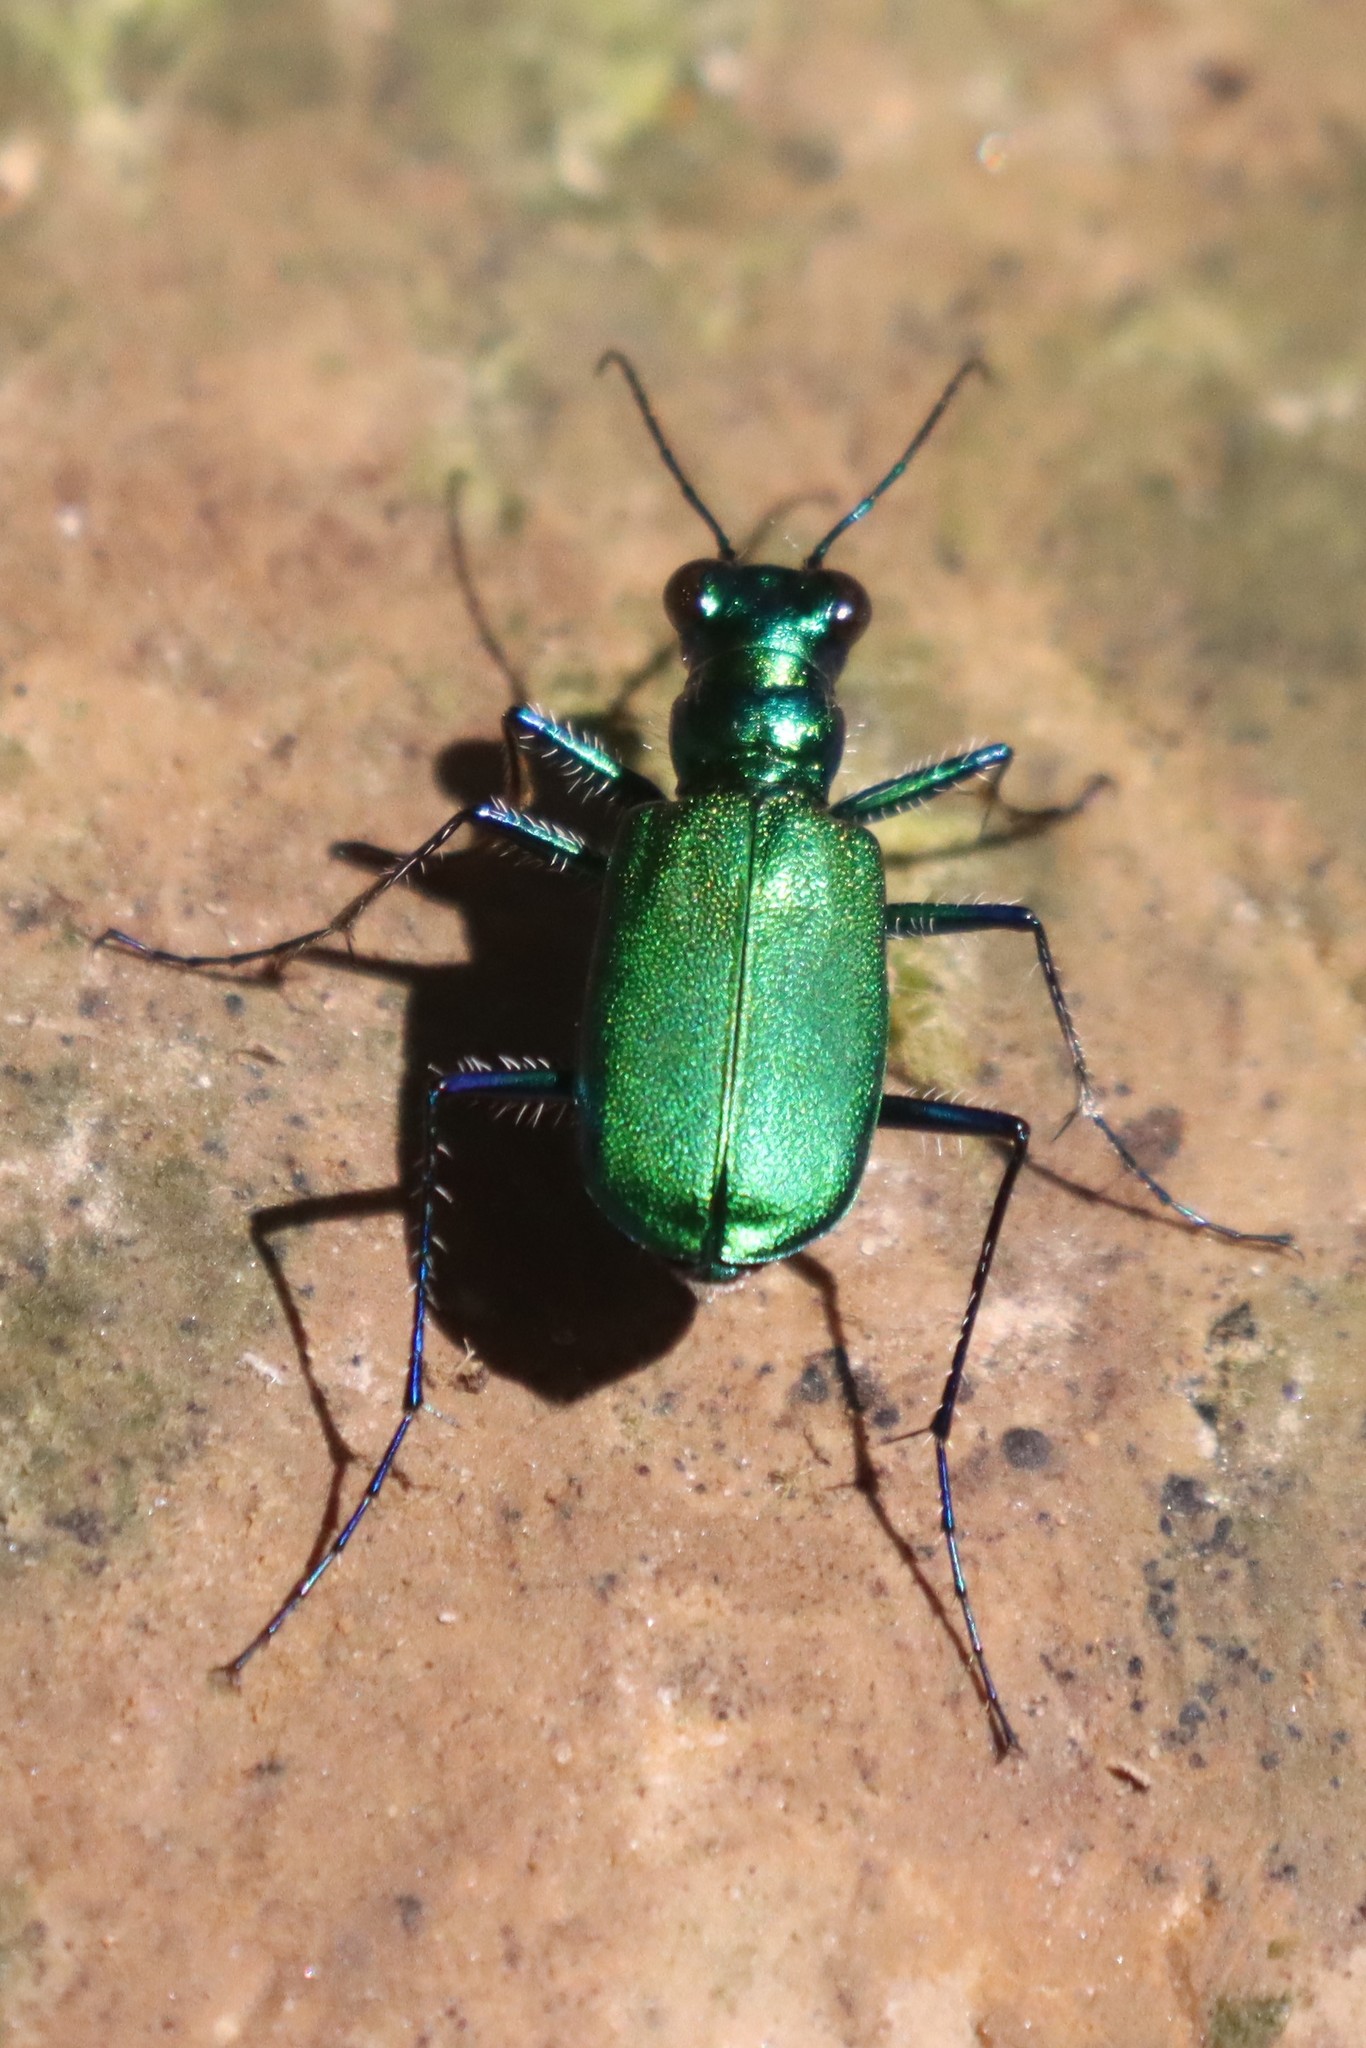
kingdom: Animalia
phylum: Arthropoda
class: Insecta
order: Coleoptera
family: Carabidae
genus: Cicindela
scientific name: Cicindela sexguttata
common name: Six-spotted tiger beetle
